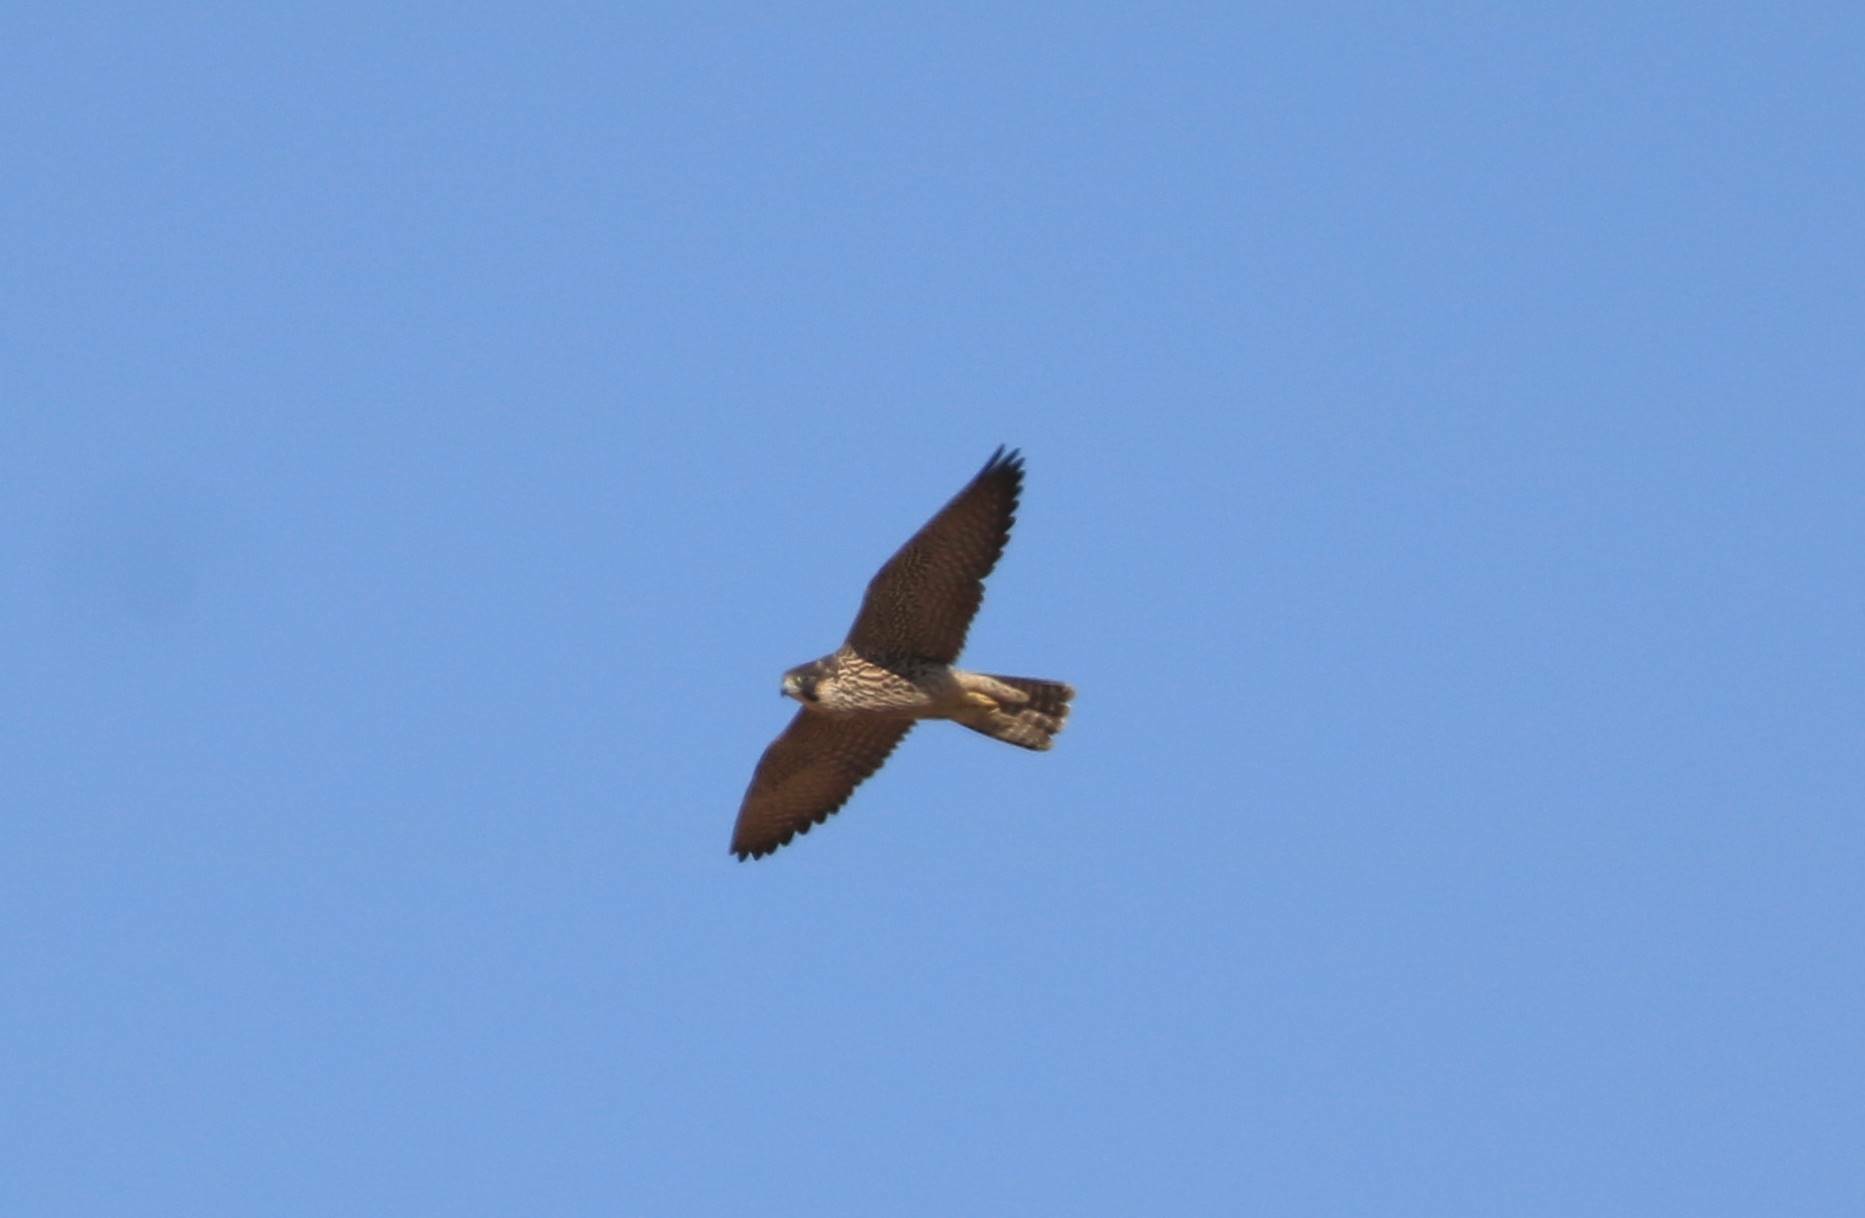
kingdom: Animalia
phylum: Chordata
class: Aves
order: Falconiformes
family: Falconidae
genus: Falco
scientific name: Falco peregrinus
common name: Peregrine falcon
